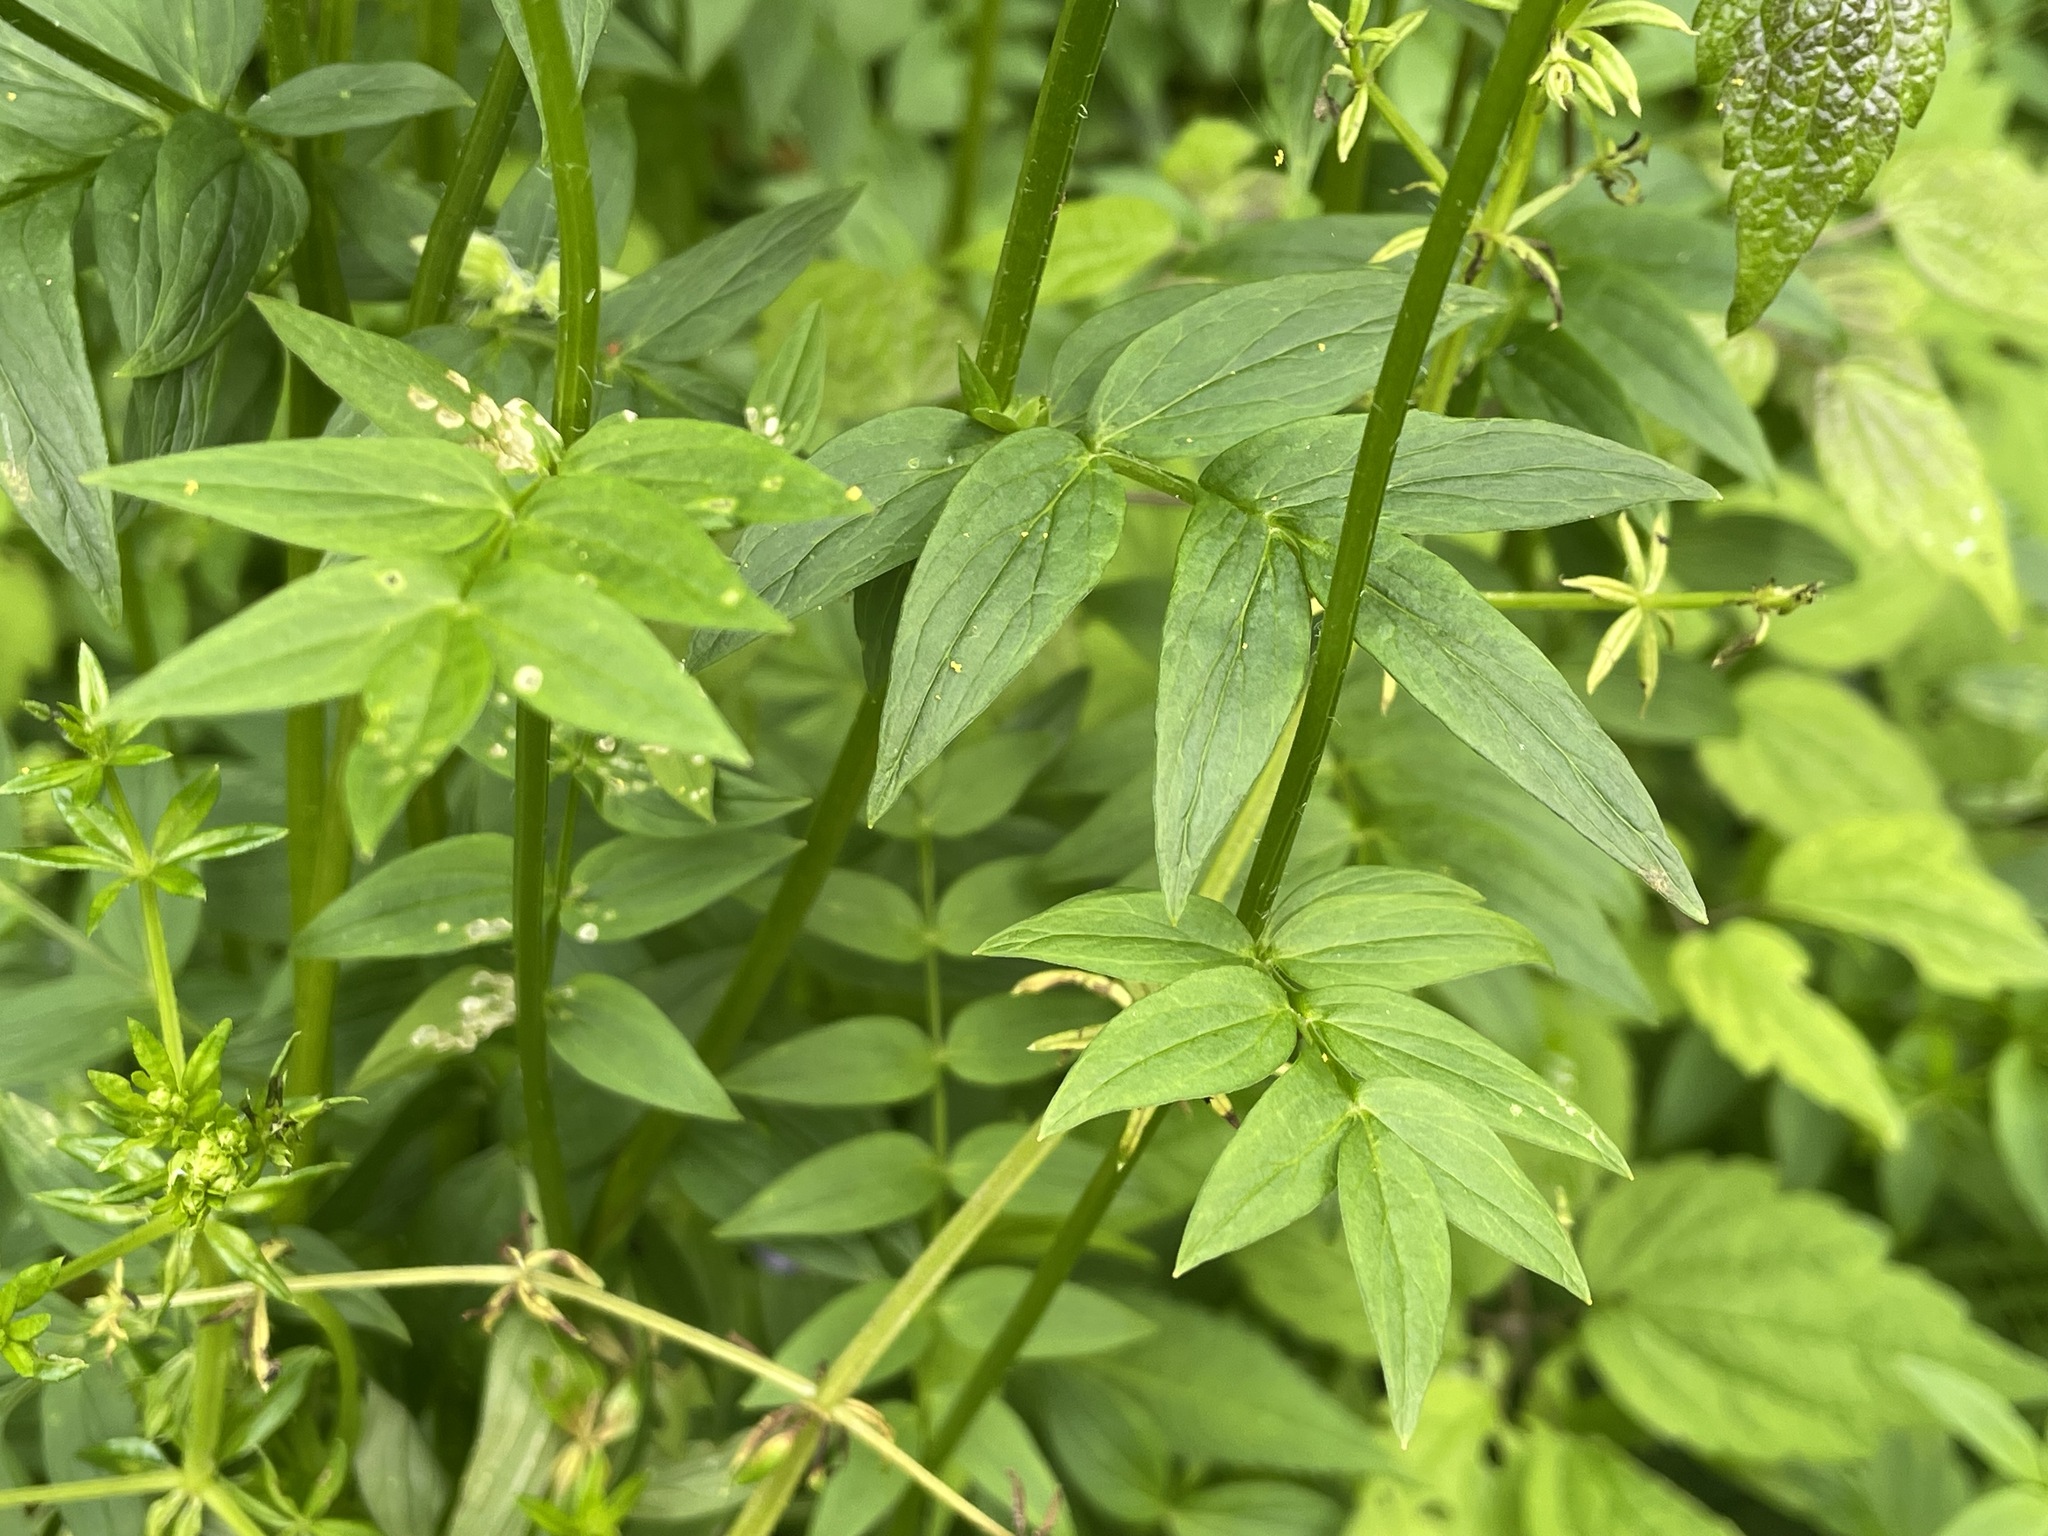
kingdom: Plantae
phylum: Tracheophyta
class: Magnoliopsida
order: Ericales
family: Polemoniaceae
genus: Polemonium
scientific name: Polemonium vanbruntiae
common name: Bog jacob's-ladder
